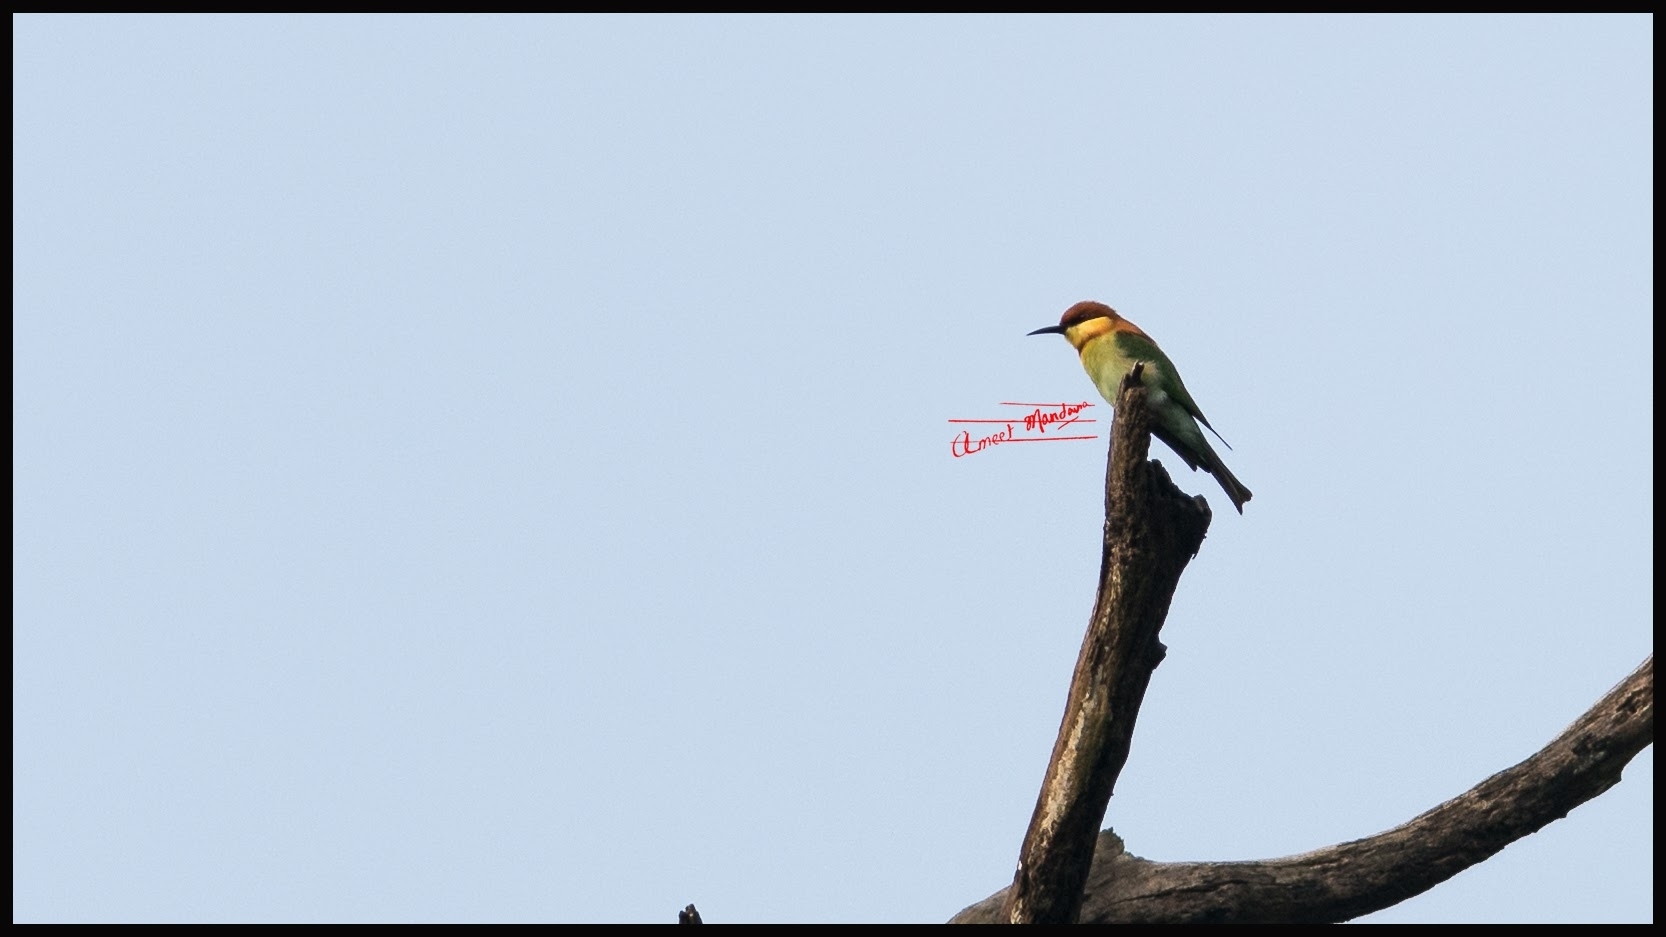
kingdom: Animalia
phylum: Chordata
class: Aves
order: Coraciiformes
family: Meropidae
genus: Merops
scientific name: Merops leschenaulti
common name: Chestnut-headed bee-eater
